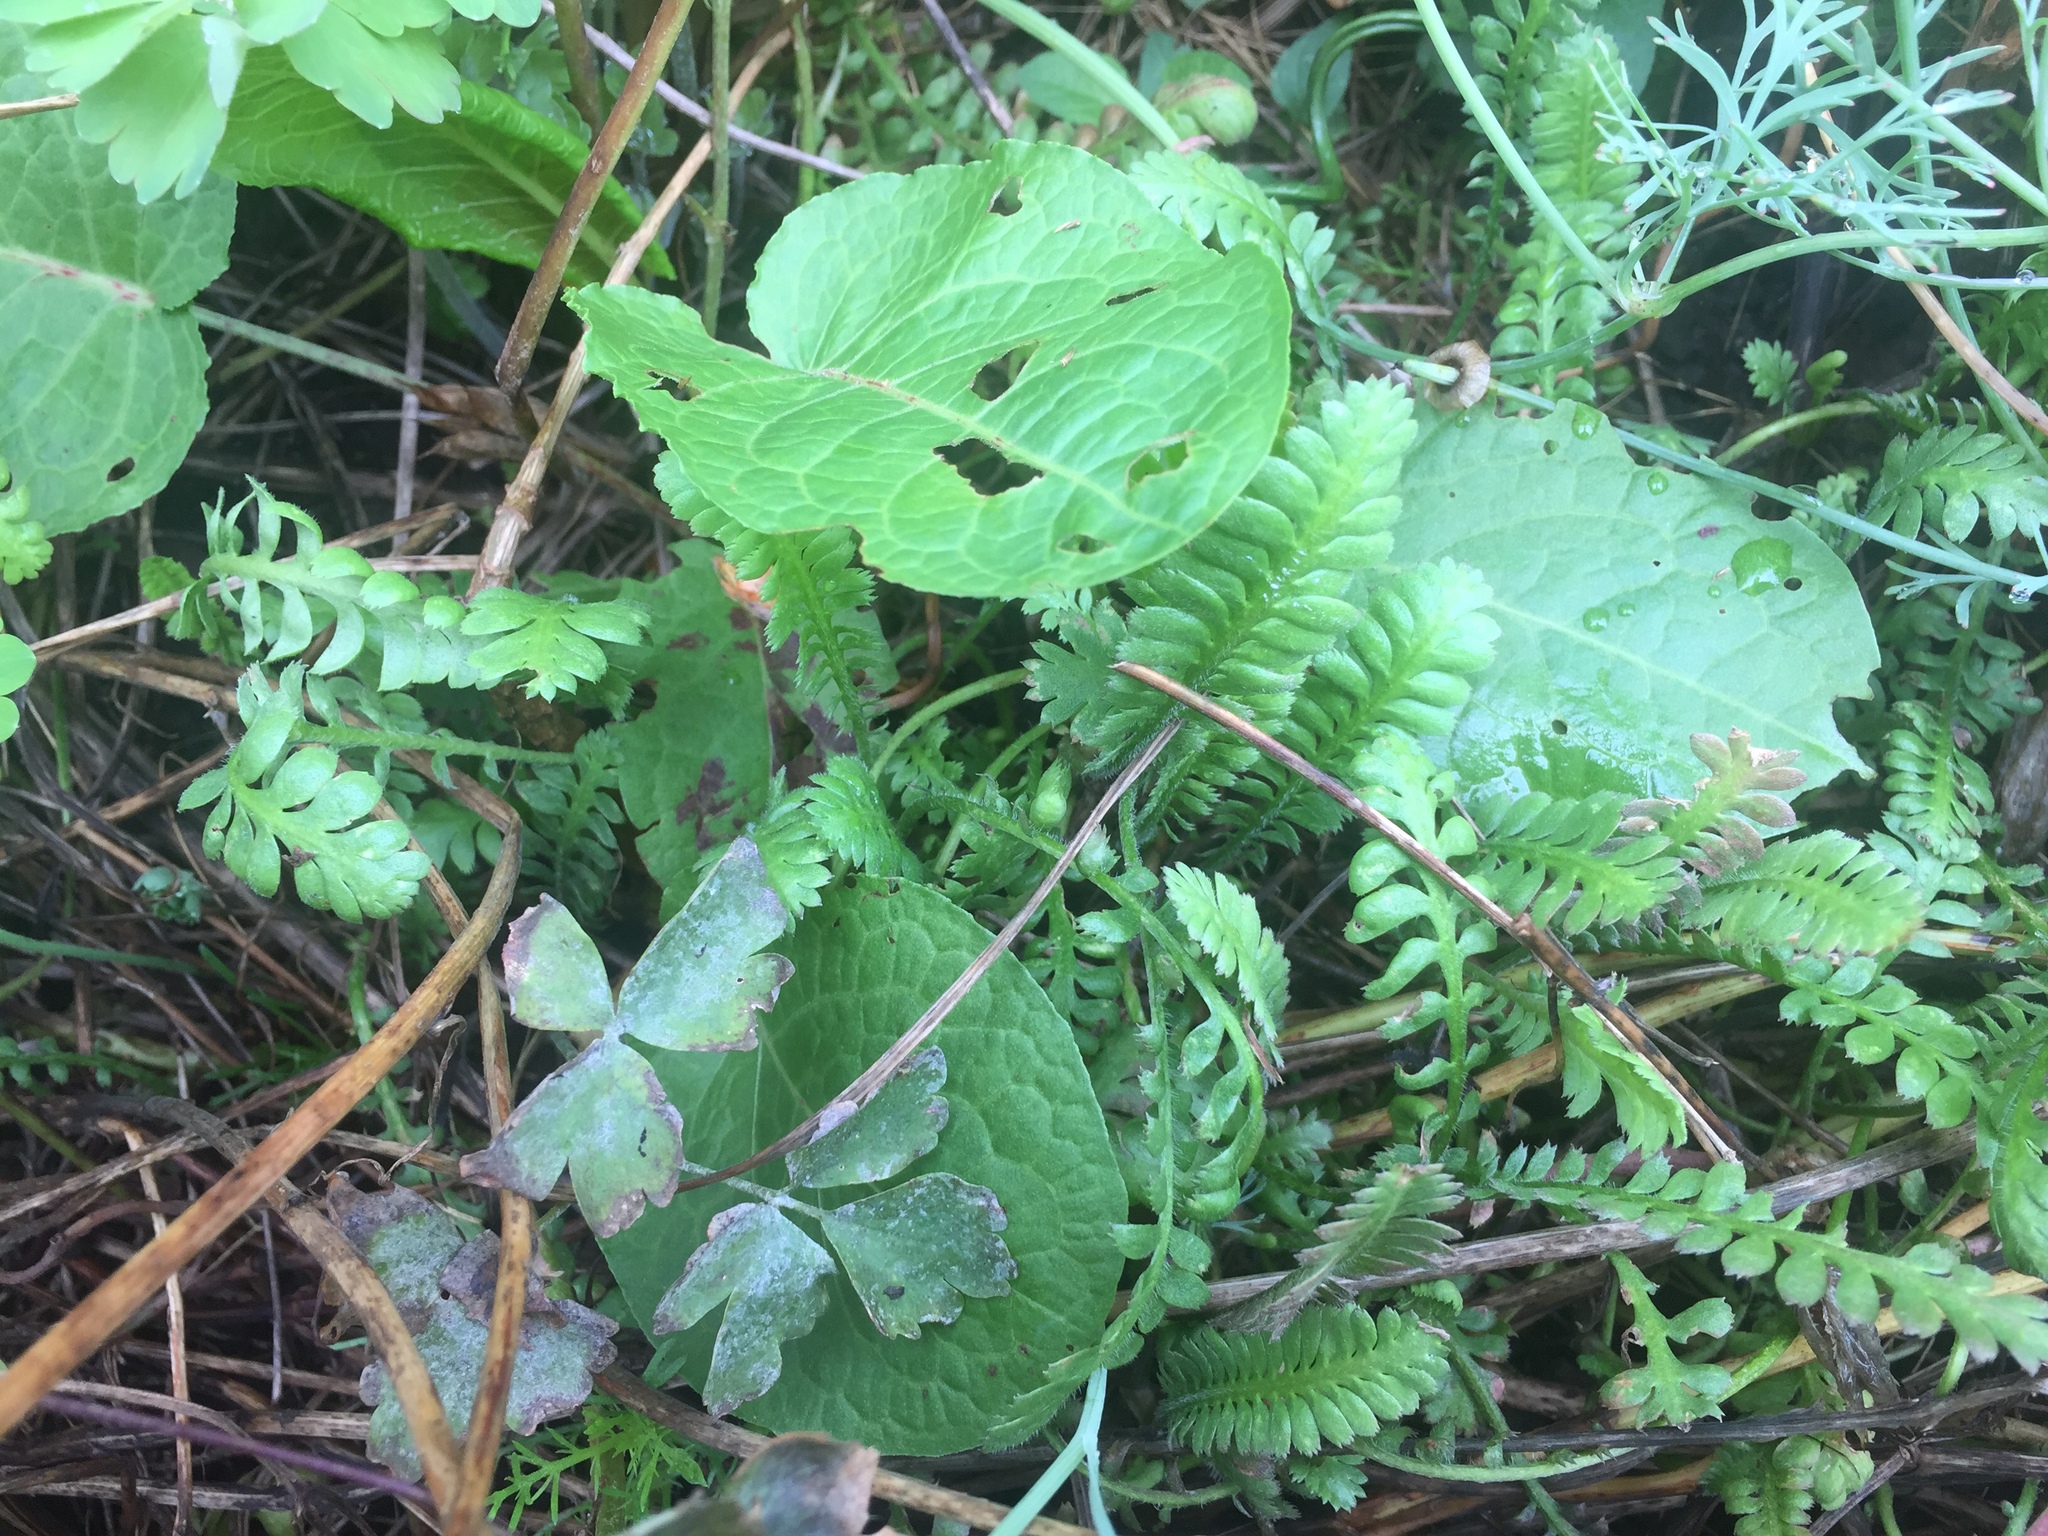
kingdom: Plantae
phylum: Tracheophyta
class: Magnoliopsida
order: Caryophyllales
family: Polygonaceae
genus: Rumex
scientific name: Rumex obtusifolius
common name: Bitter dock
